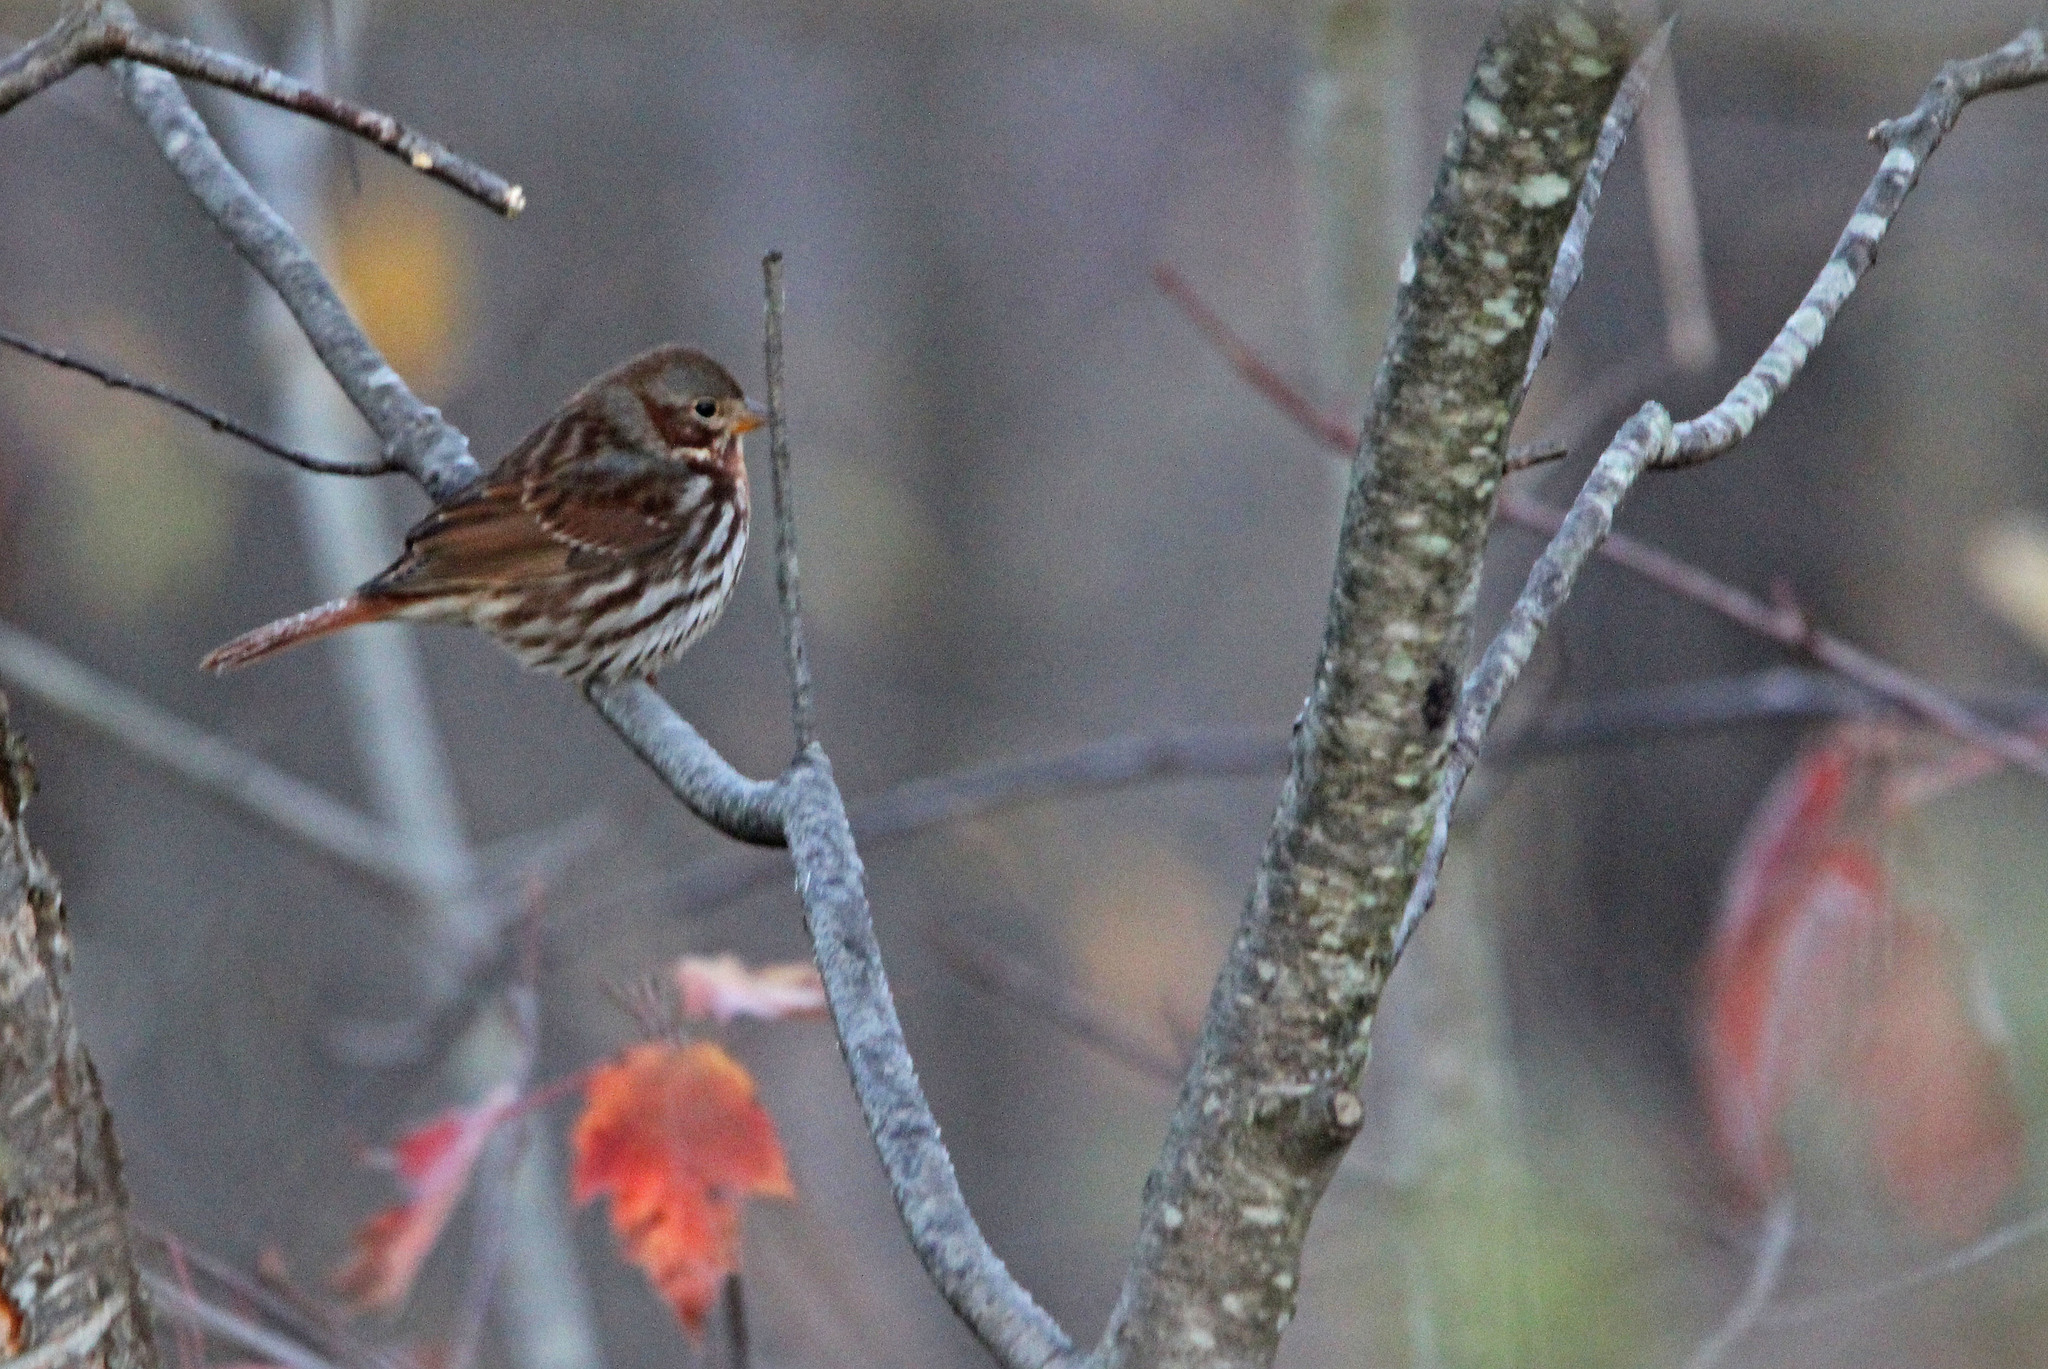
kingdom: Animalia
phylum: Chordata
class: Aves
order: Passeriformes
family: Passerellidae
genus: Passerella
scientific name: Passerella iliaca
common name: Fox sparrow
